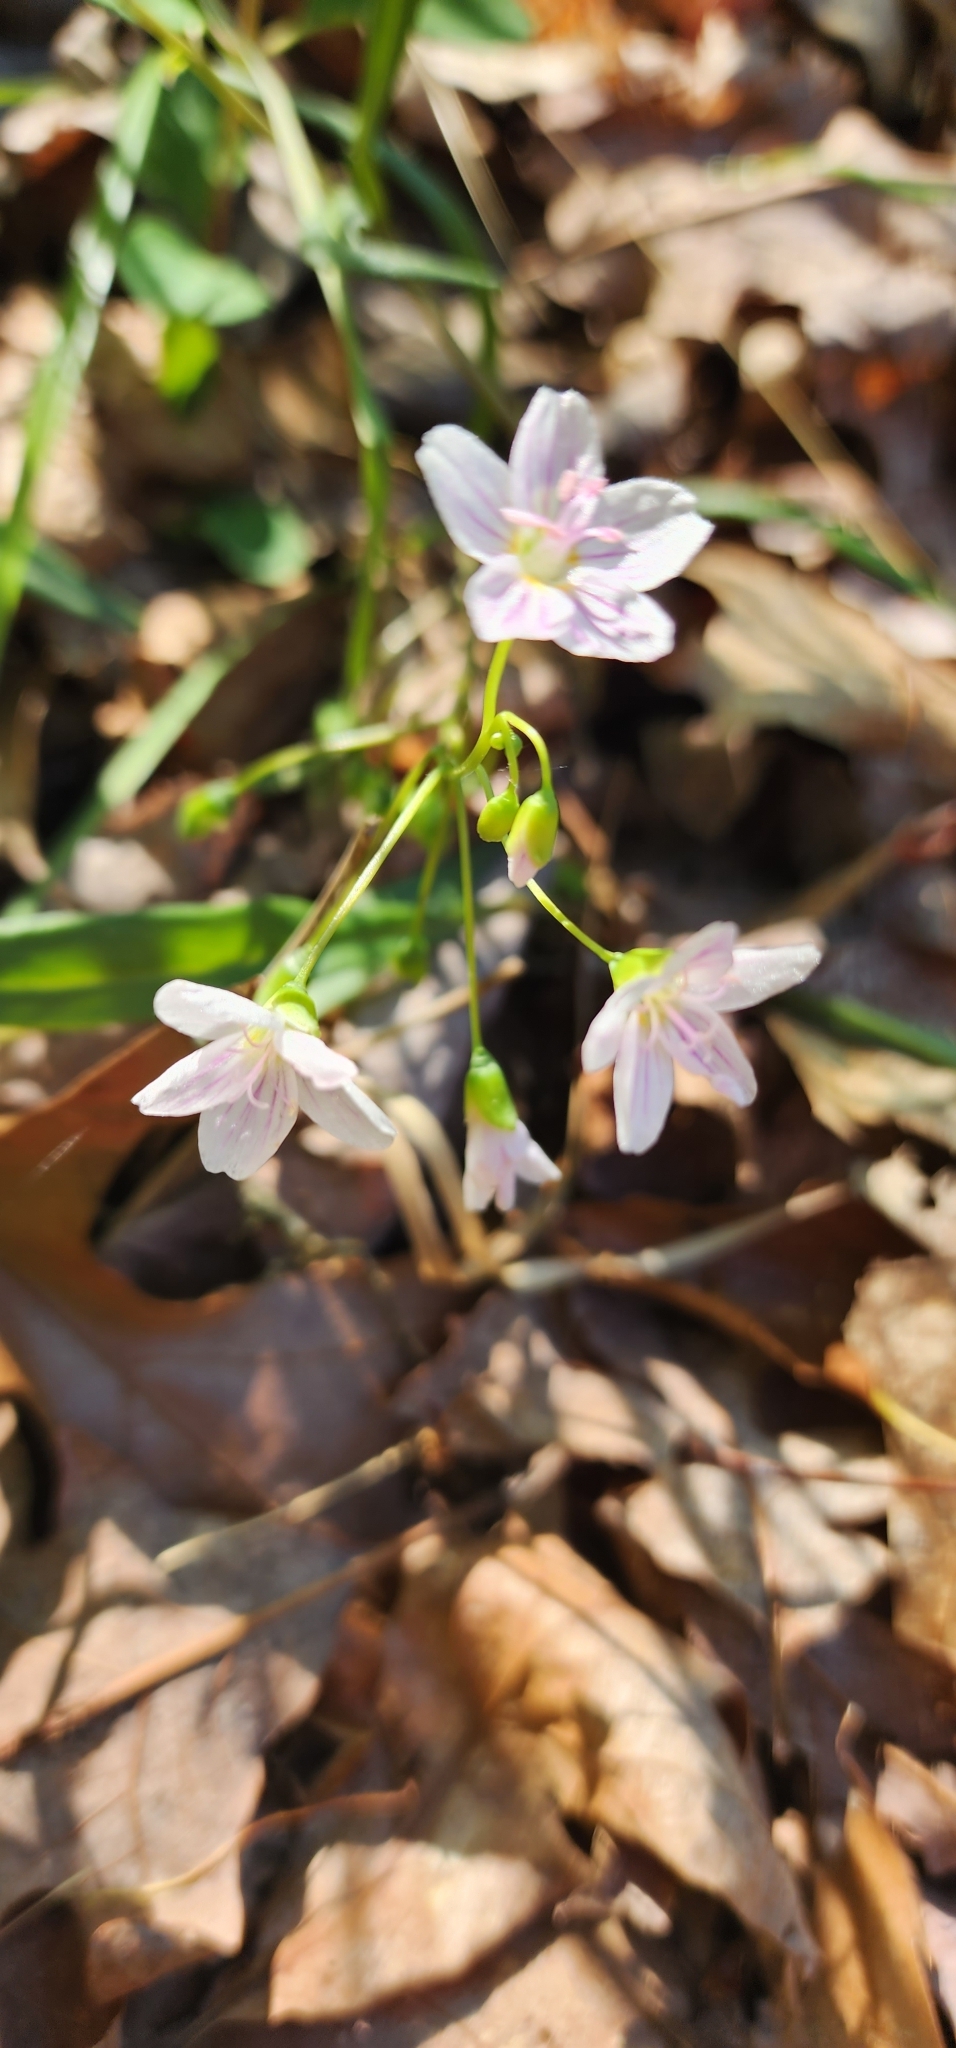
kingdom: Plantae
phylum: Tracheophyta
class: Magnoliopsida
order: Caryophyllales
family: Montiaceae
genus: Claytonia
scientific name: Claytonia virginica
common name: Virginia springbeauty
